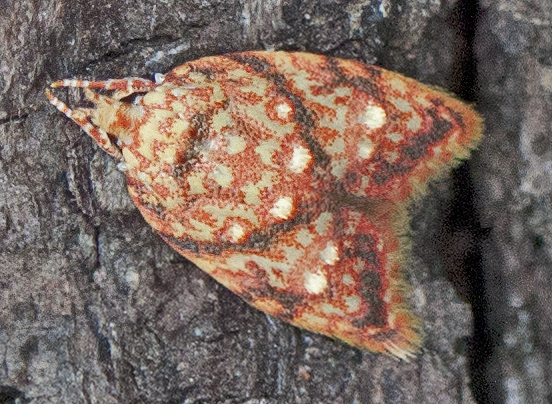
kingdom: Animalia
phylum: Arthropoda
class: Insecta
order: Lepidoptera
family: Oecophoridae
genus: Lophopepla
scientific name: Lophopepla igniferella
